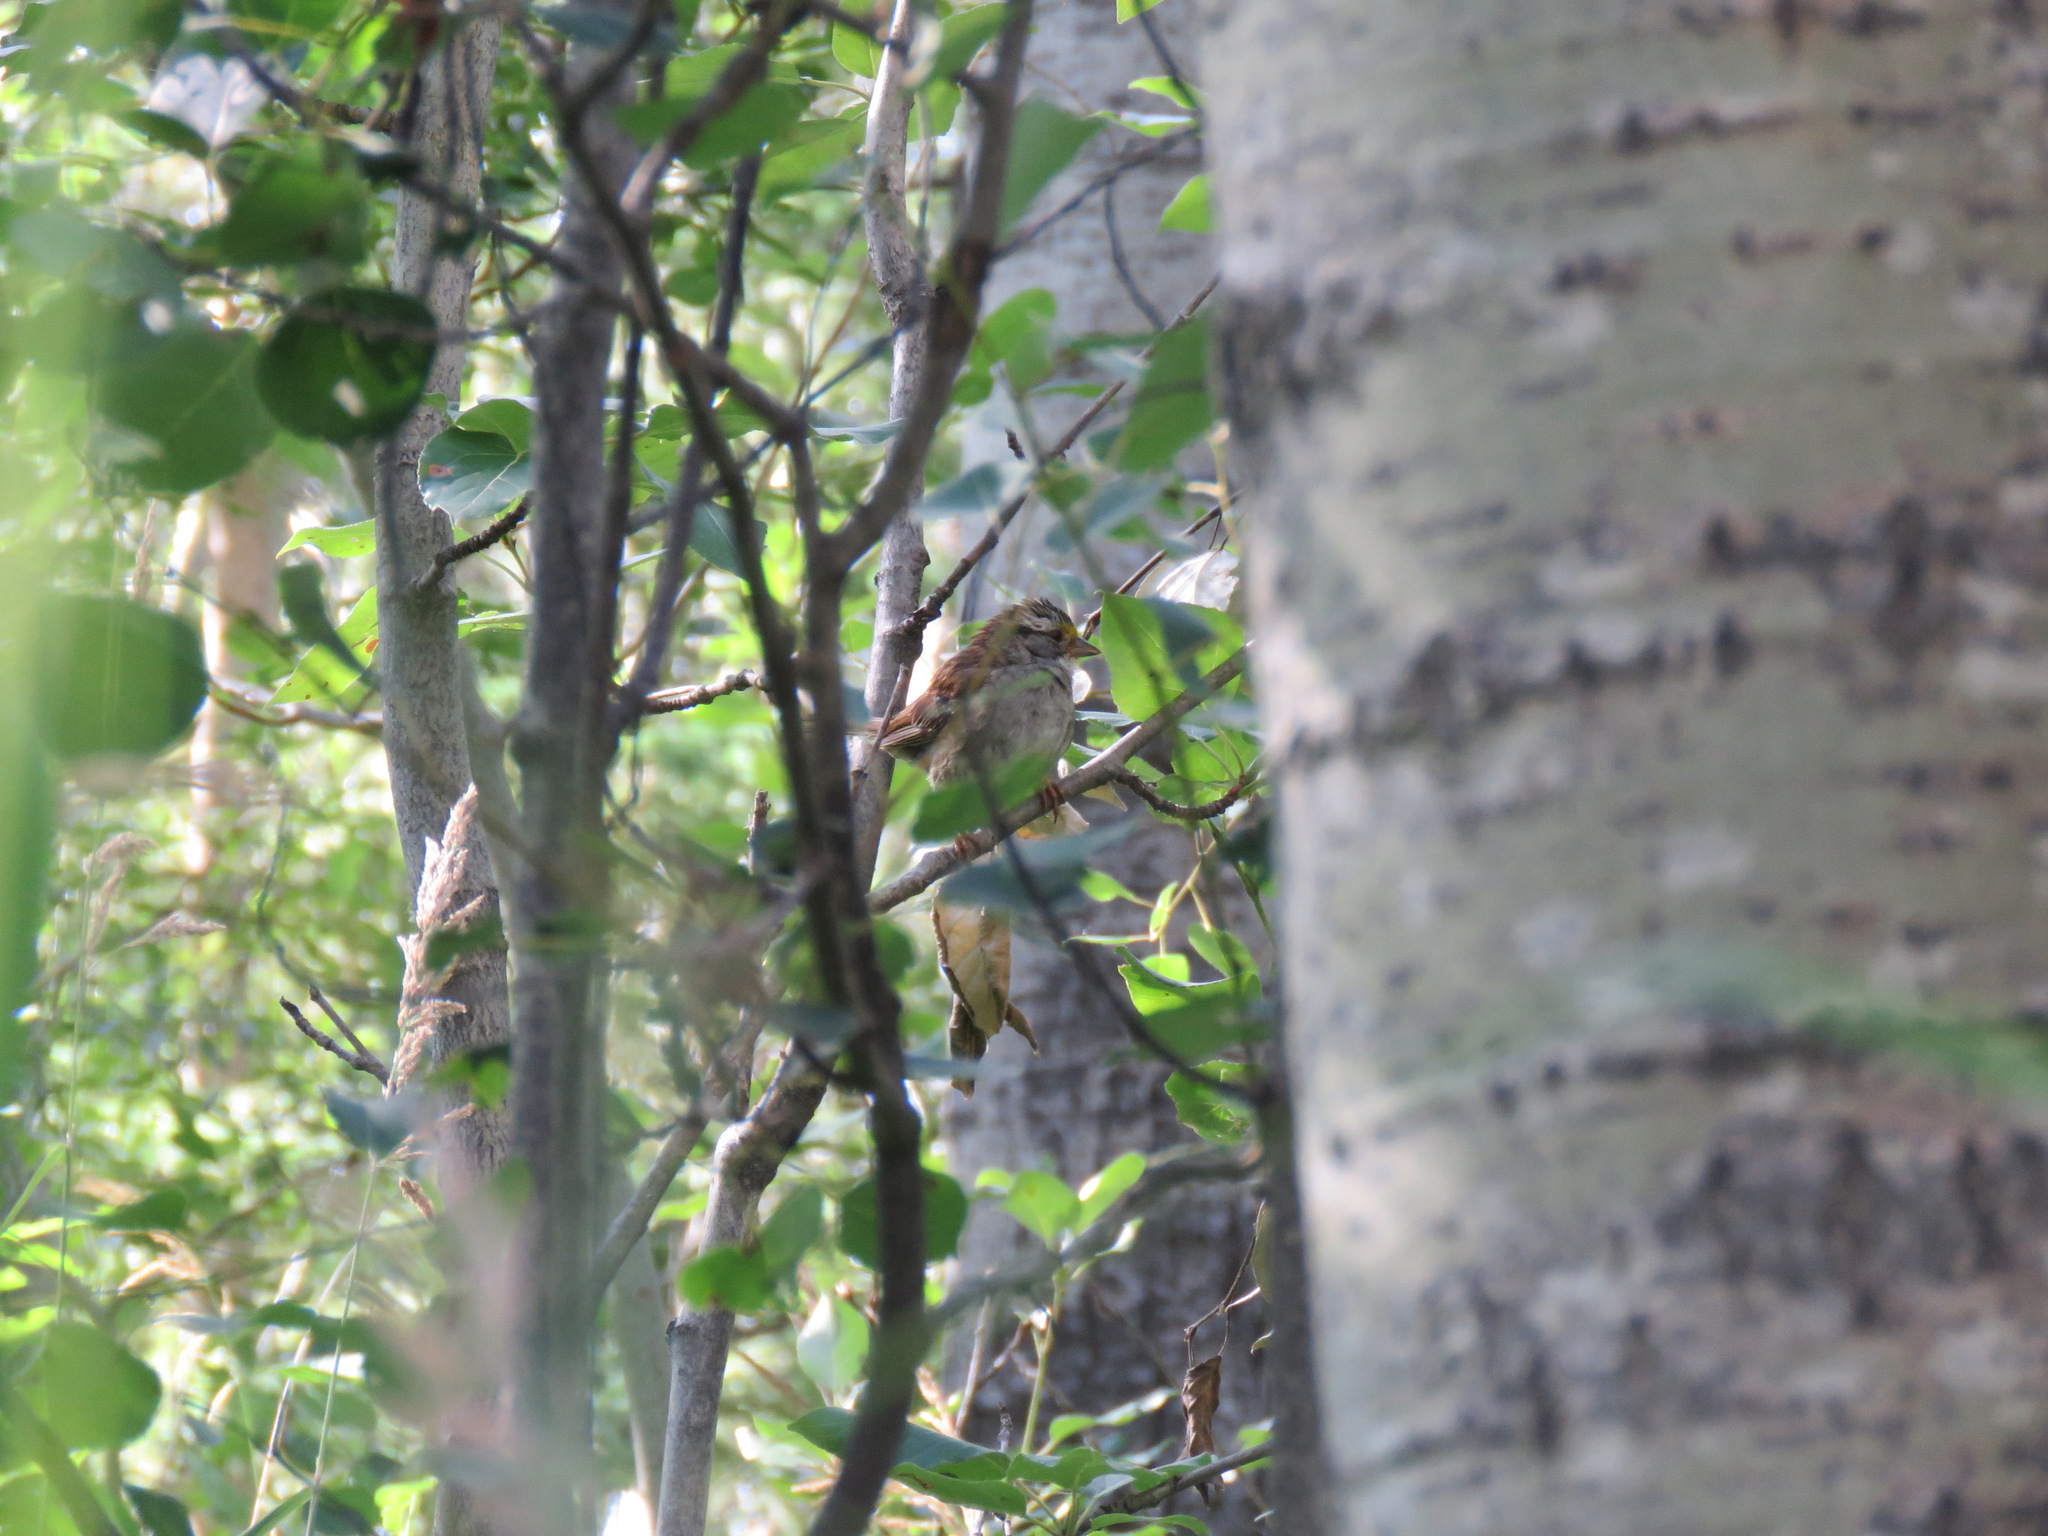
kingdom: Animalia
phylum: Chordata
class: Aves
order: Passeriformes
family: Passerellidae
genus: Zonotrichia
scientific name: Zonotrichia albicollis
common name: White-throated sparrow
